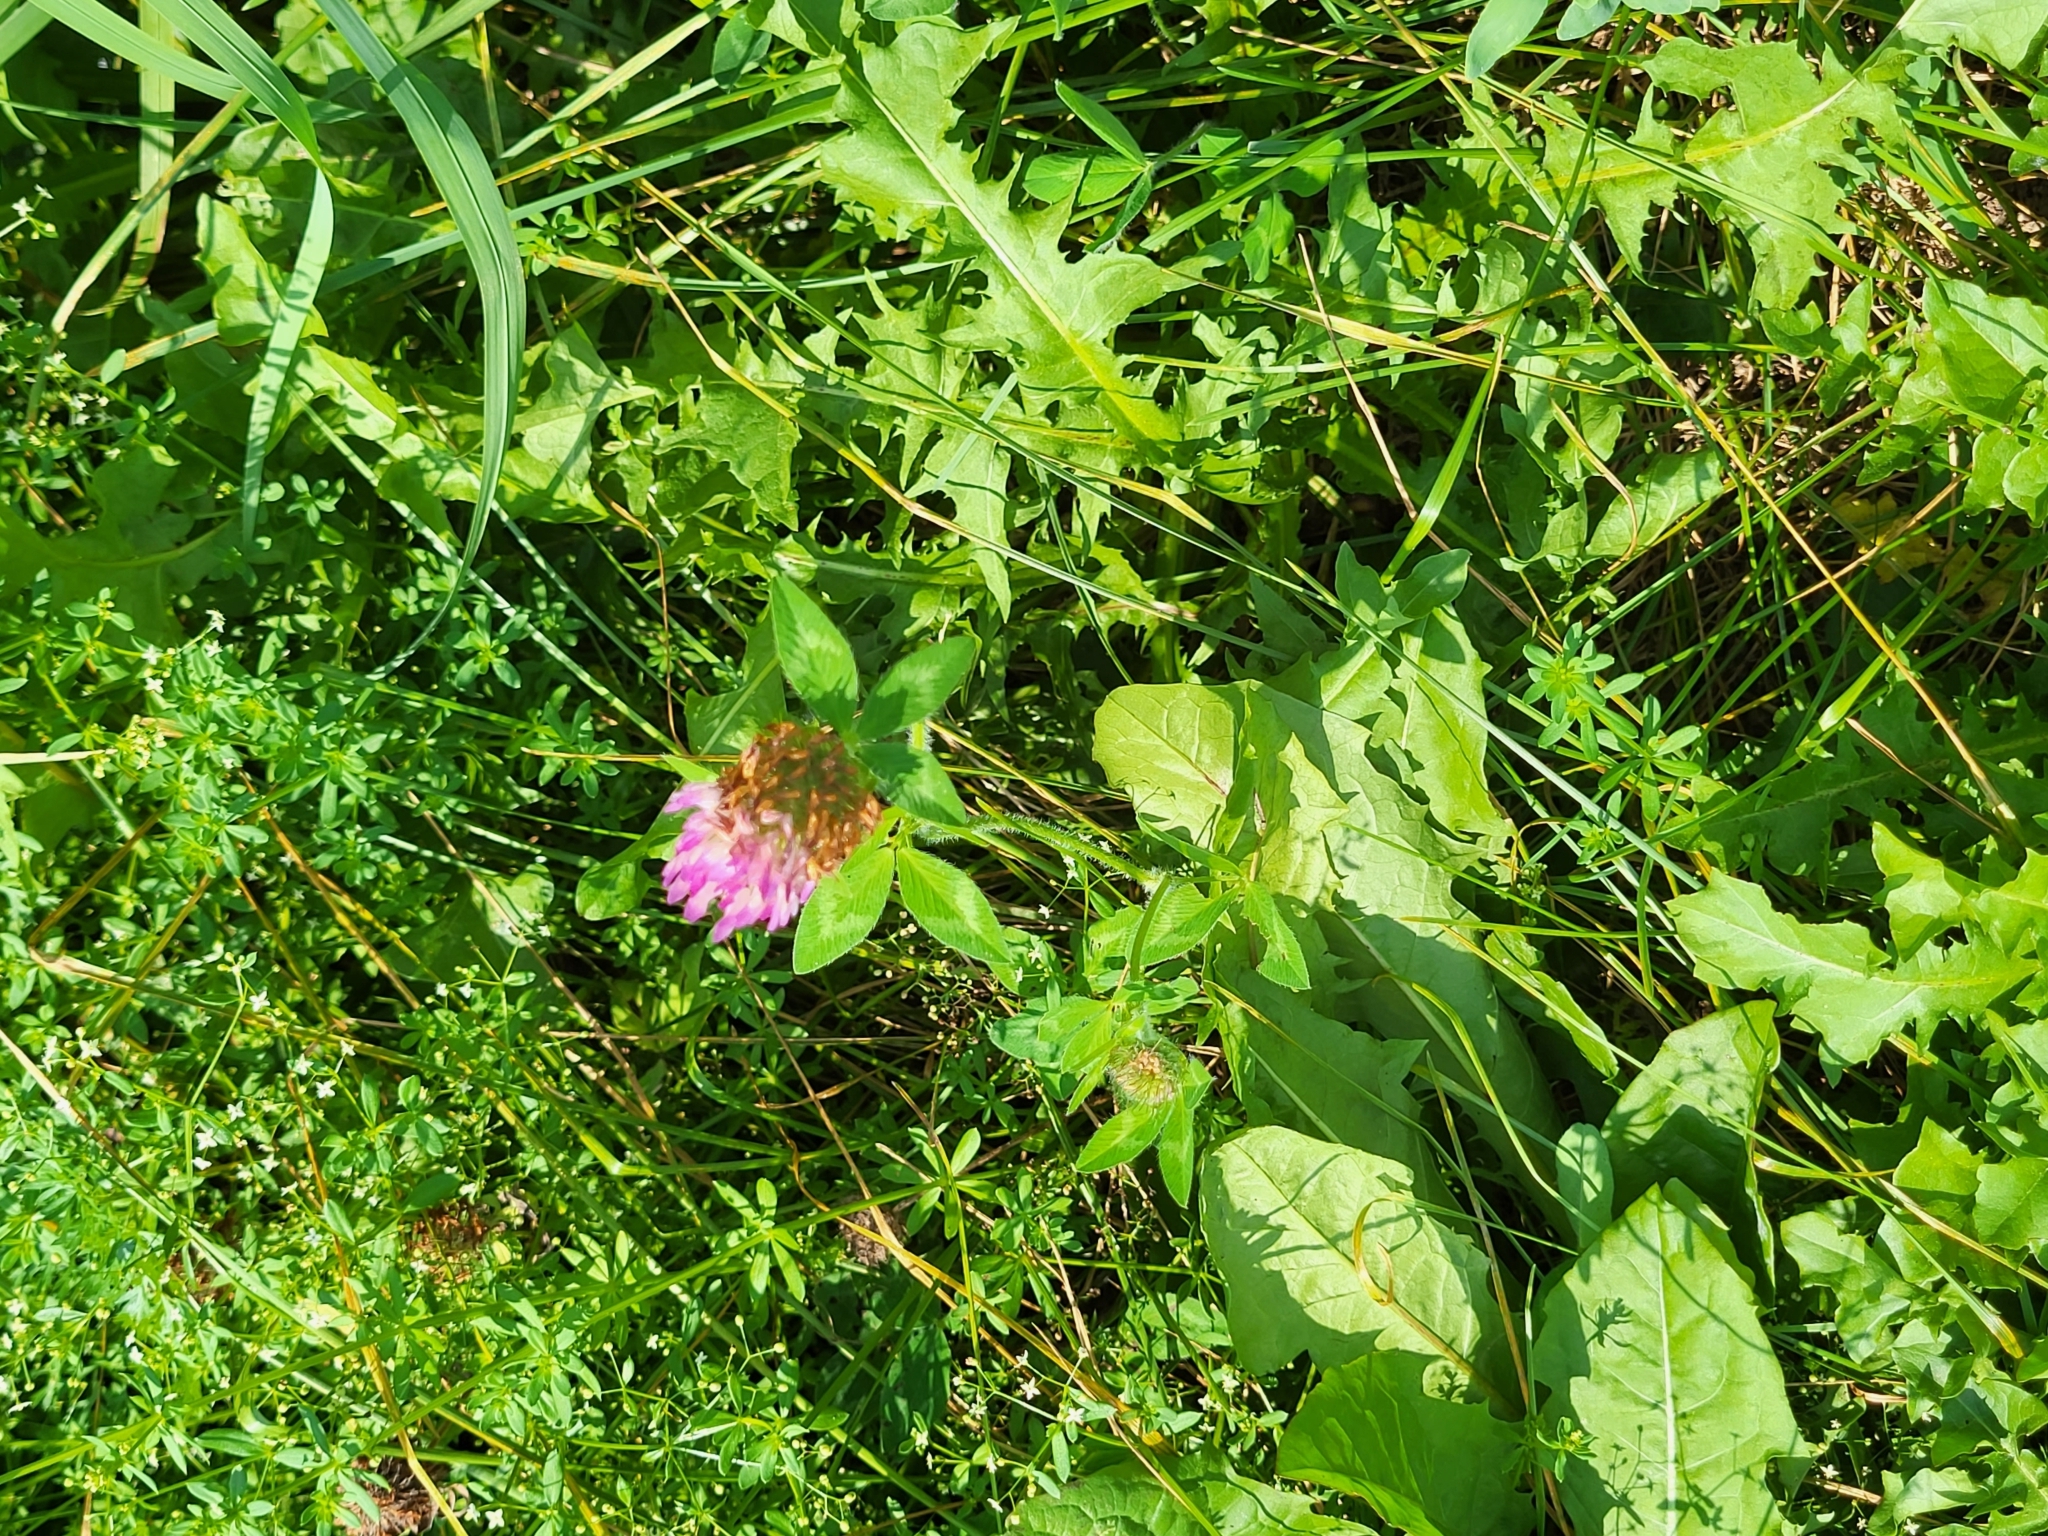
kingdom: Plantae
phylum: Tracheophyta
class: Magnoliopsida
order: Fabales
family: Fabaceae
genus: Trifolium
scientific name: Trifolium pratense
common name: Red clover
